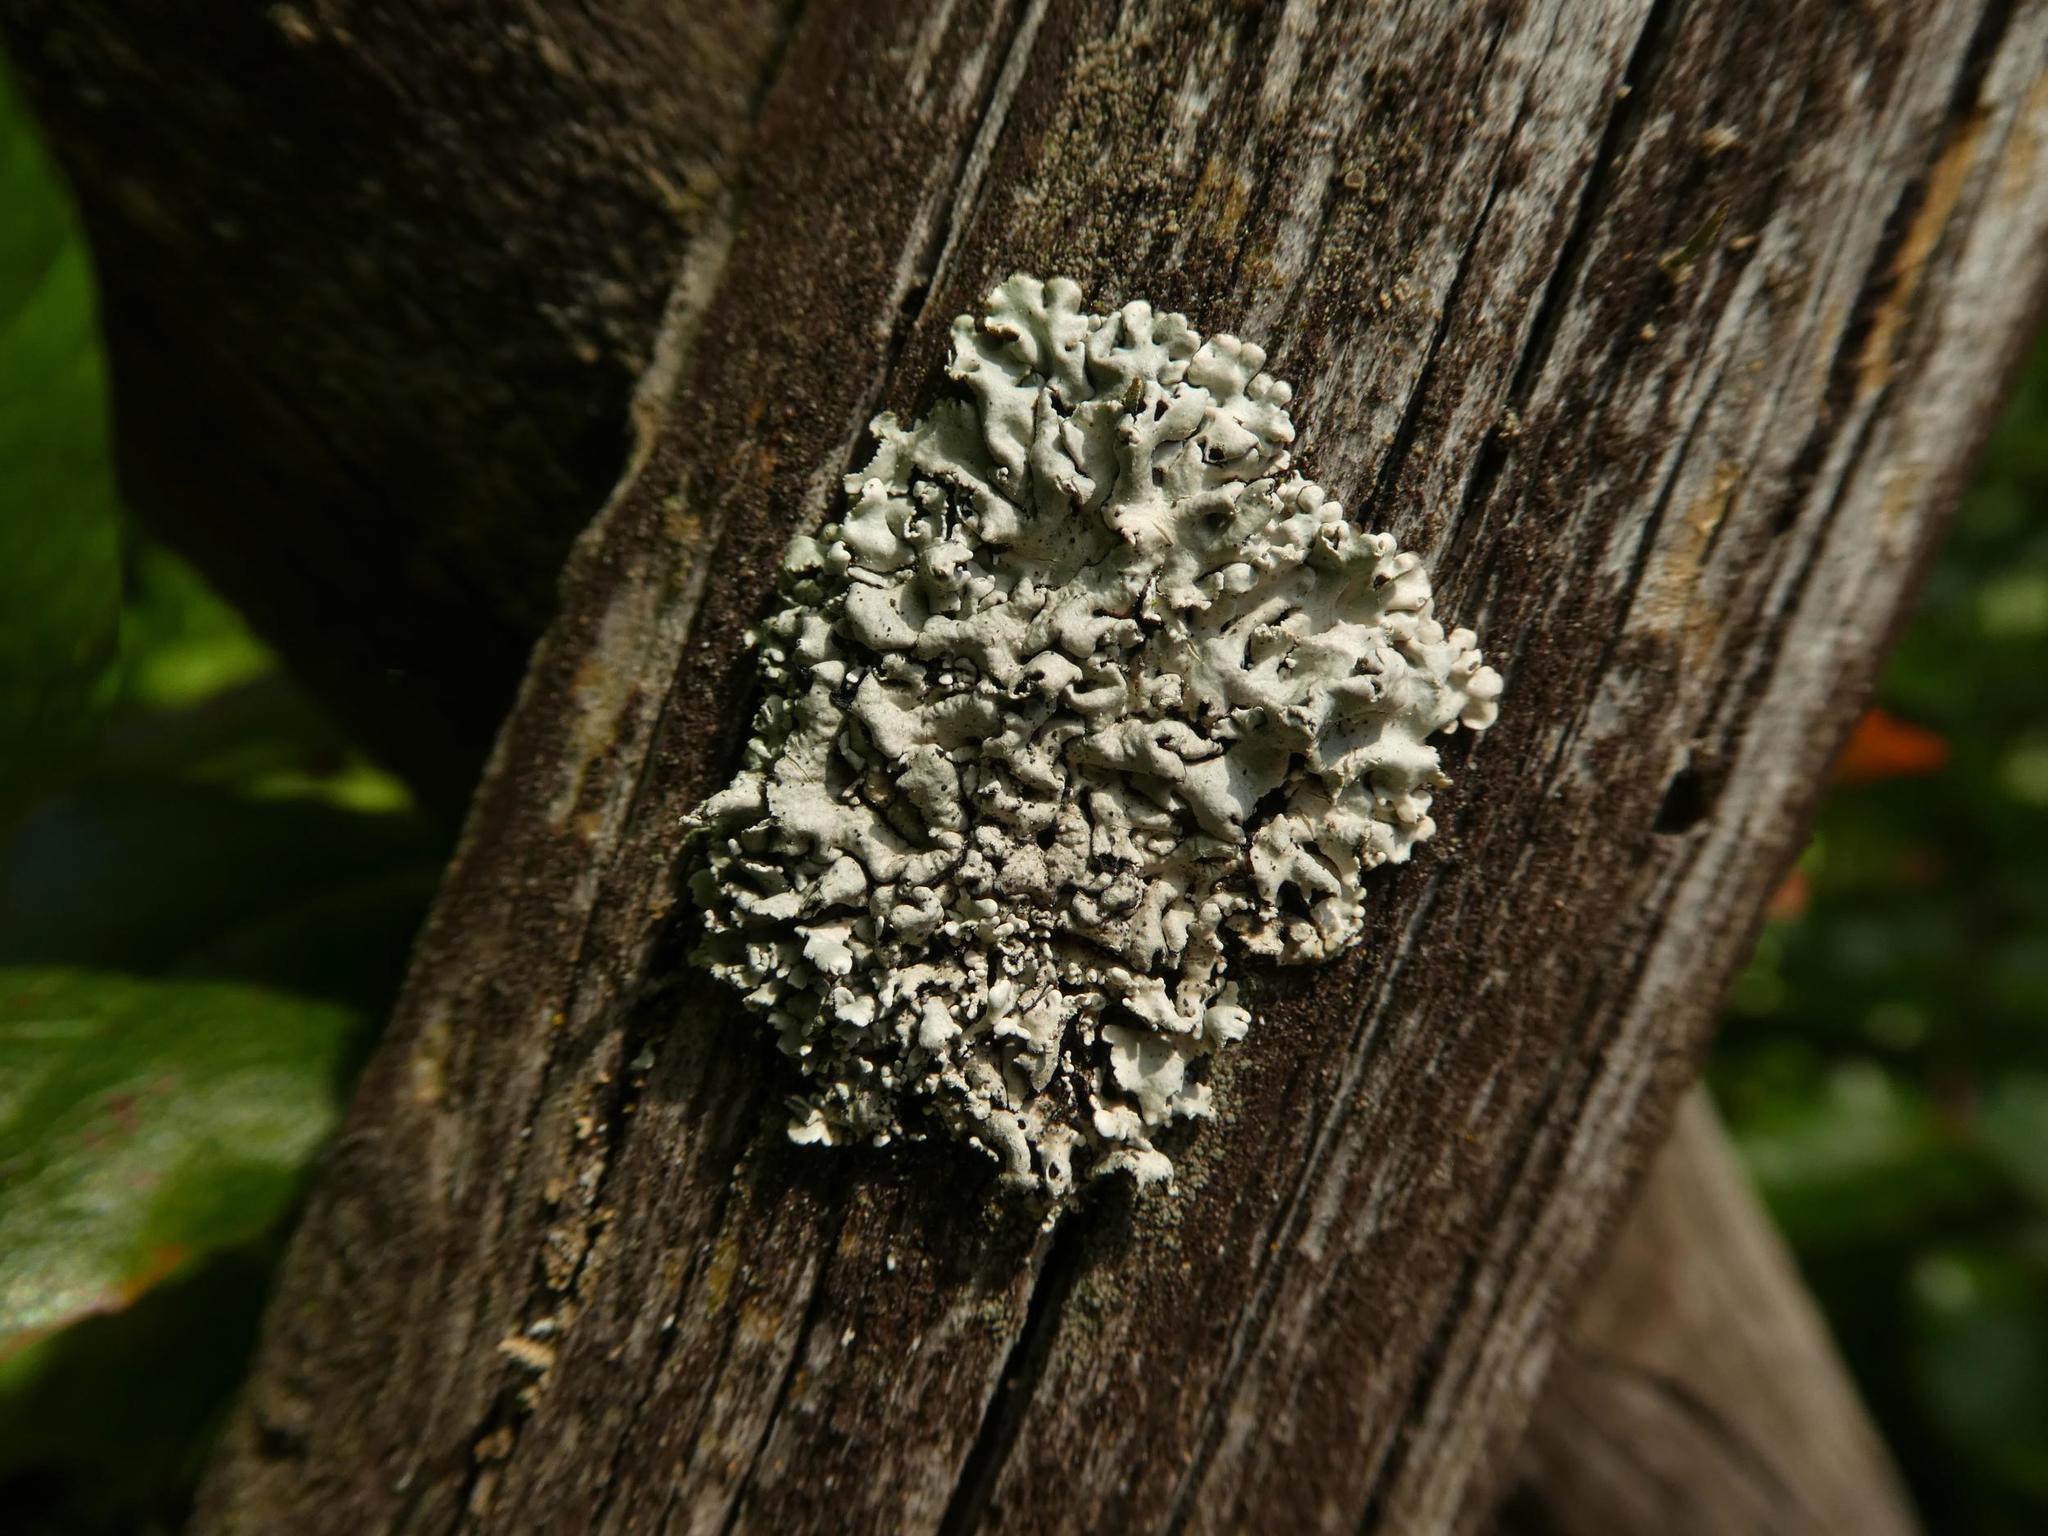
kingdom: Fungi
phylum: Ascomycota
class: Lecanoromycetes
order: Lecanorales
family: Parmeliaceae
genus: Hypogymnia
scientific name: Hypogymnia physodes
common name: Dark crottle
